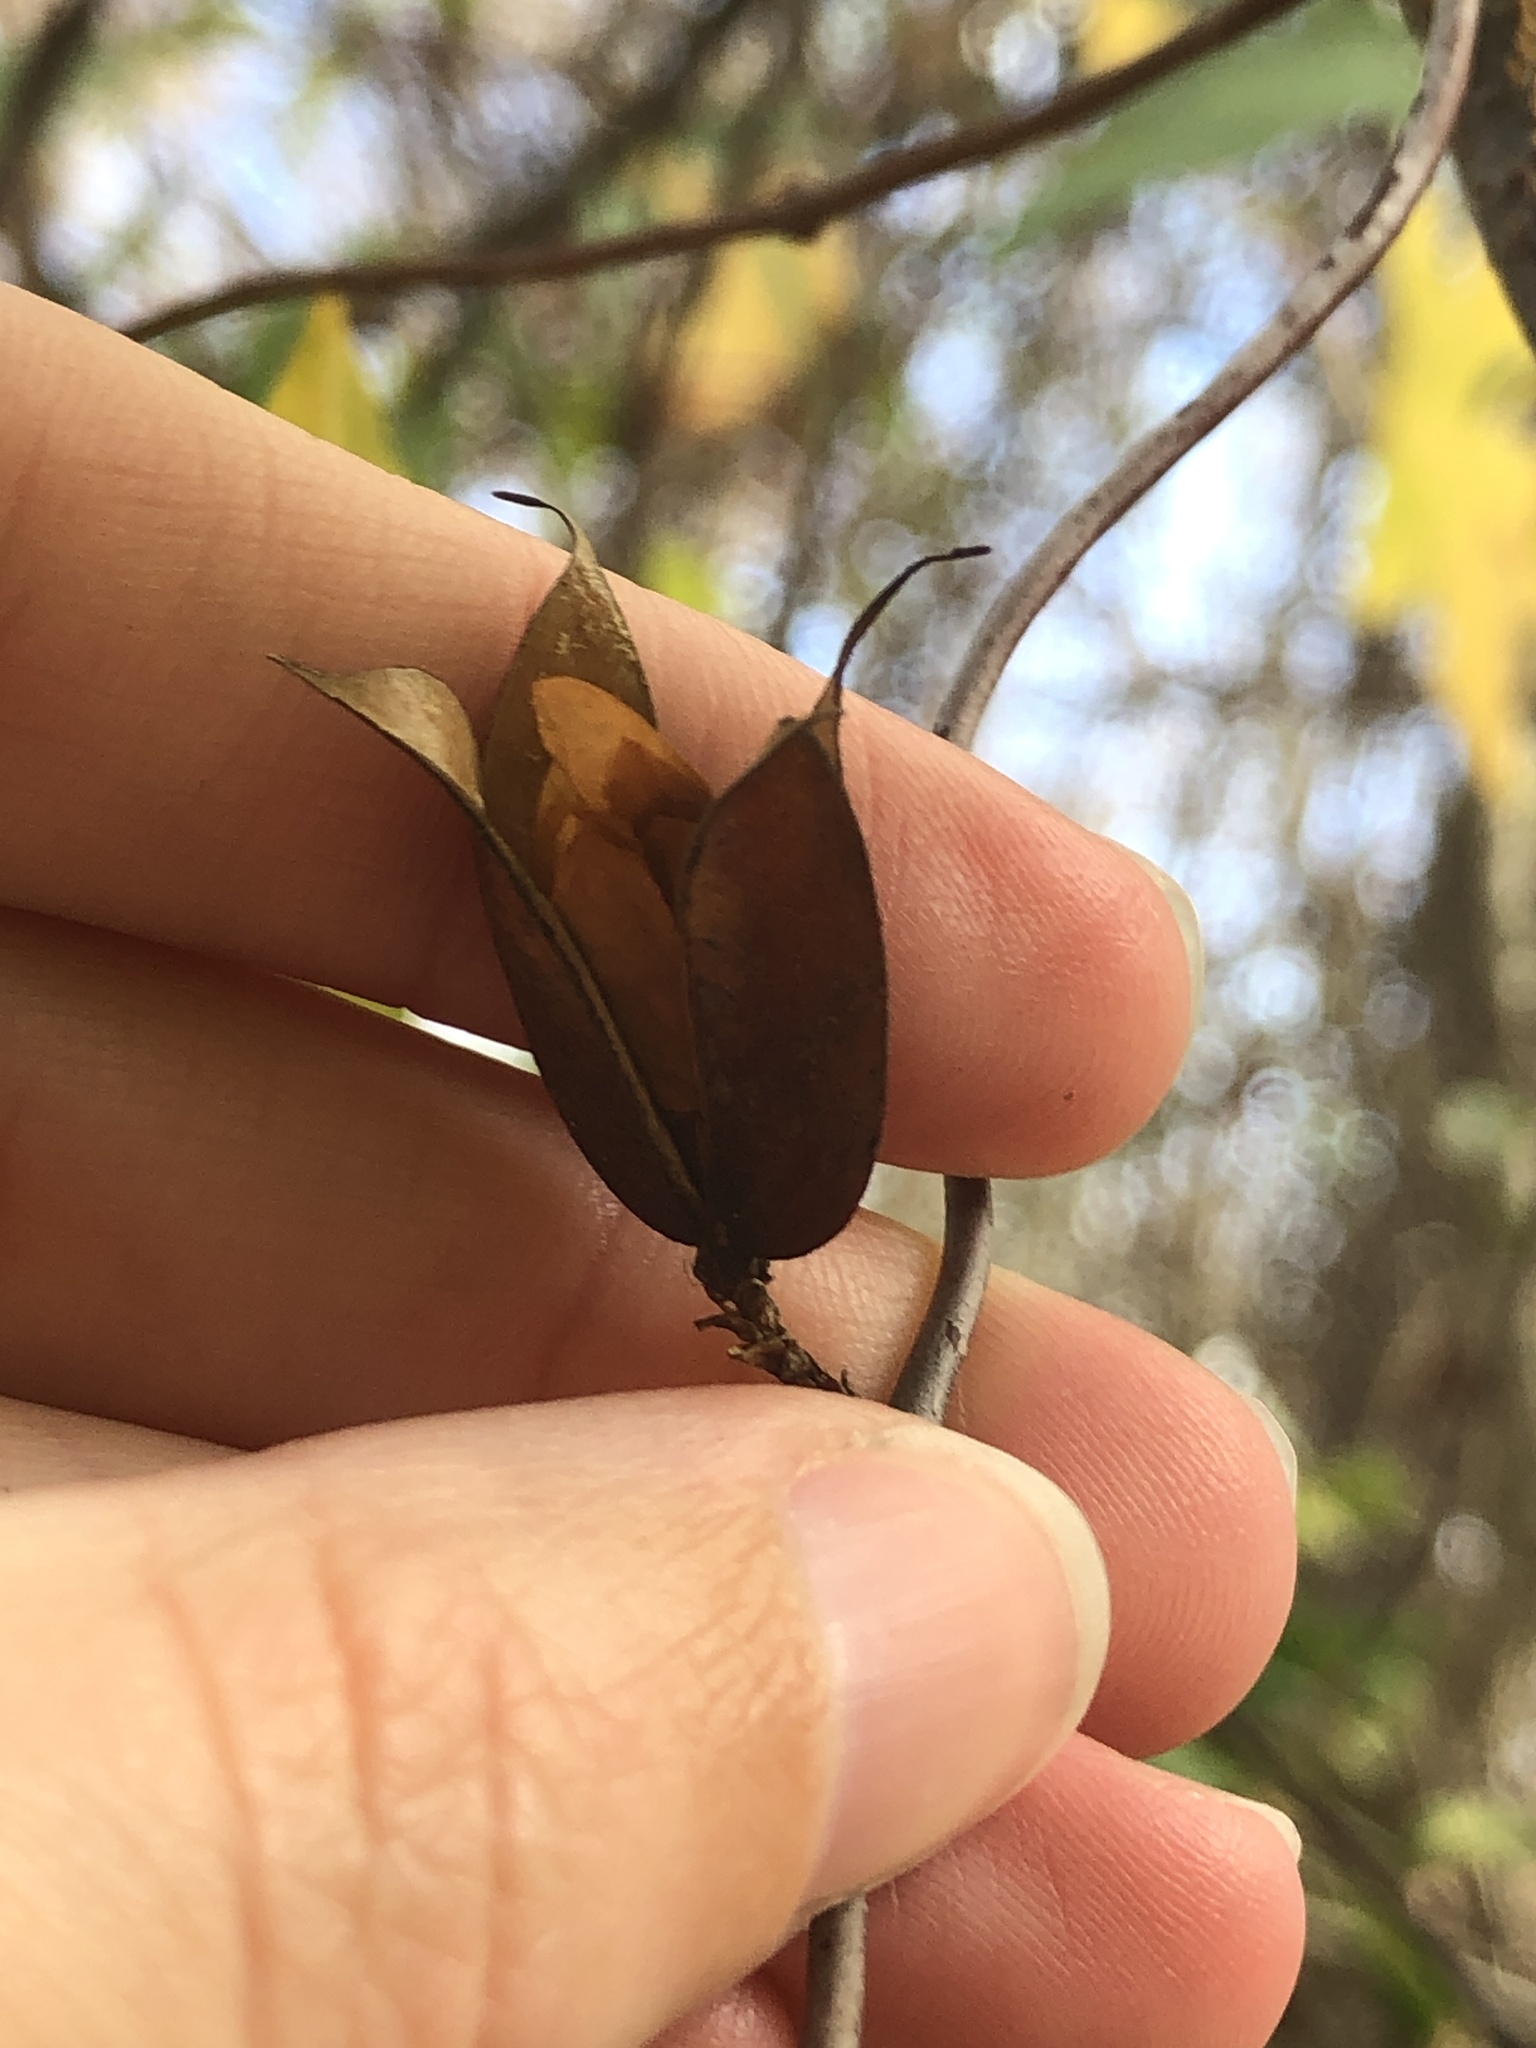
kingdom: Plantae
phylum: Tracheophyta
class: Magnoliopsida
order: Gentianales
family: Gelsemiaceae
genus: Gelsemium
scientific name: Gelsemium sempervirens
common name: Carolina-jasmine
